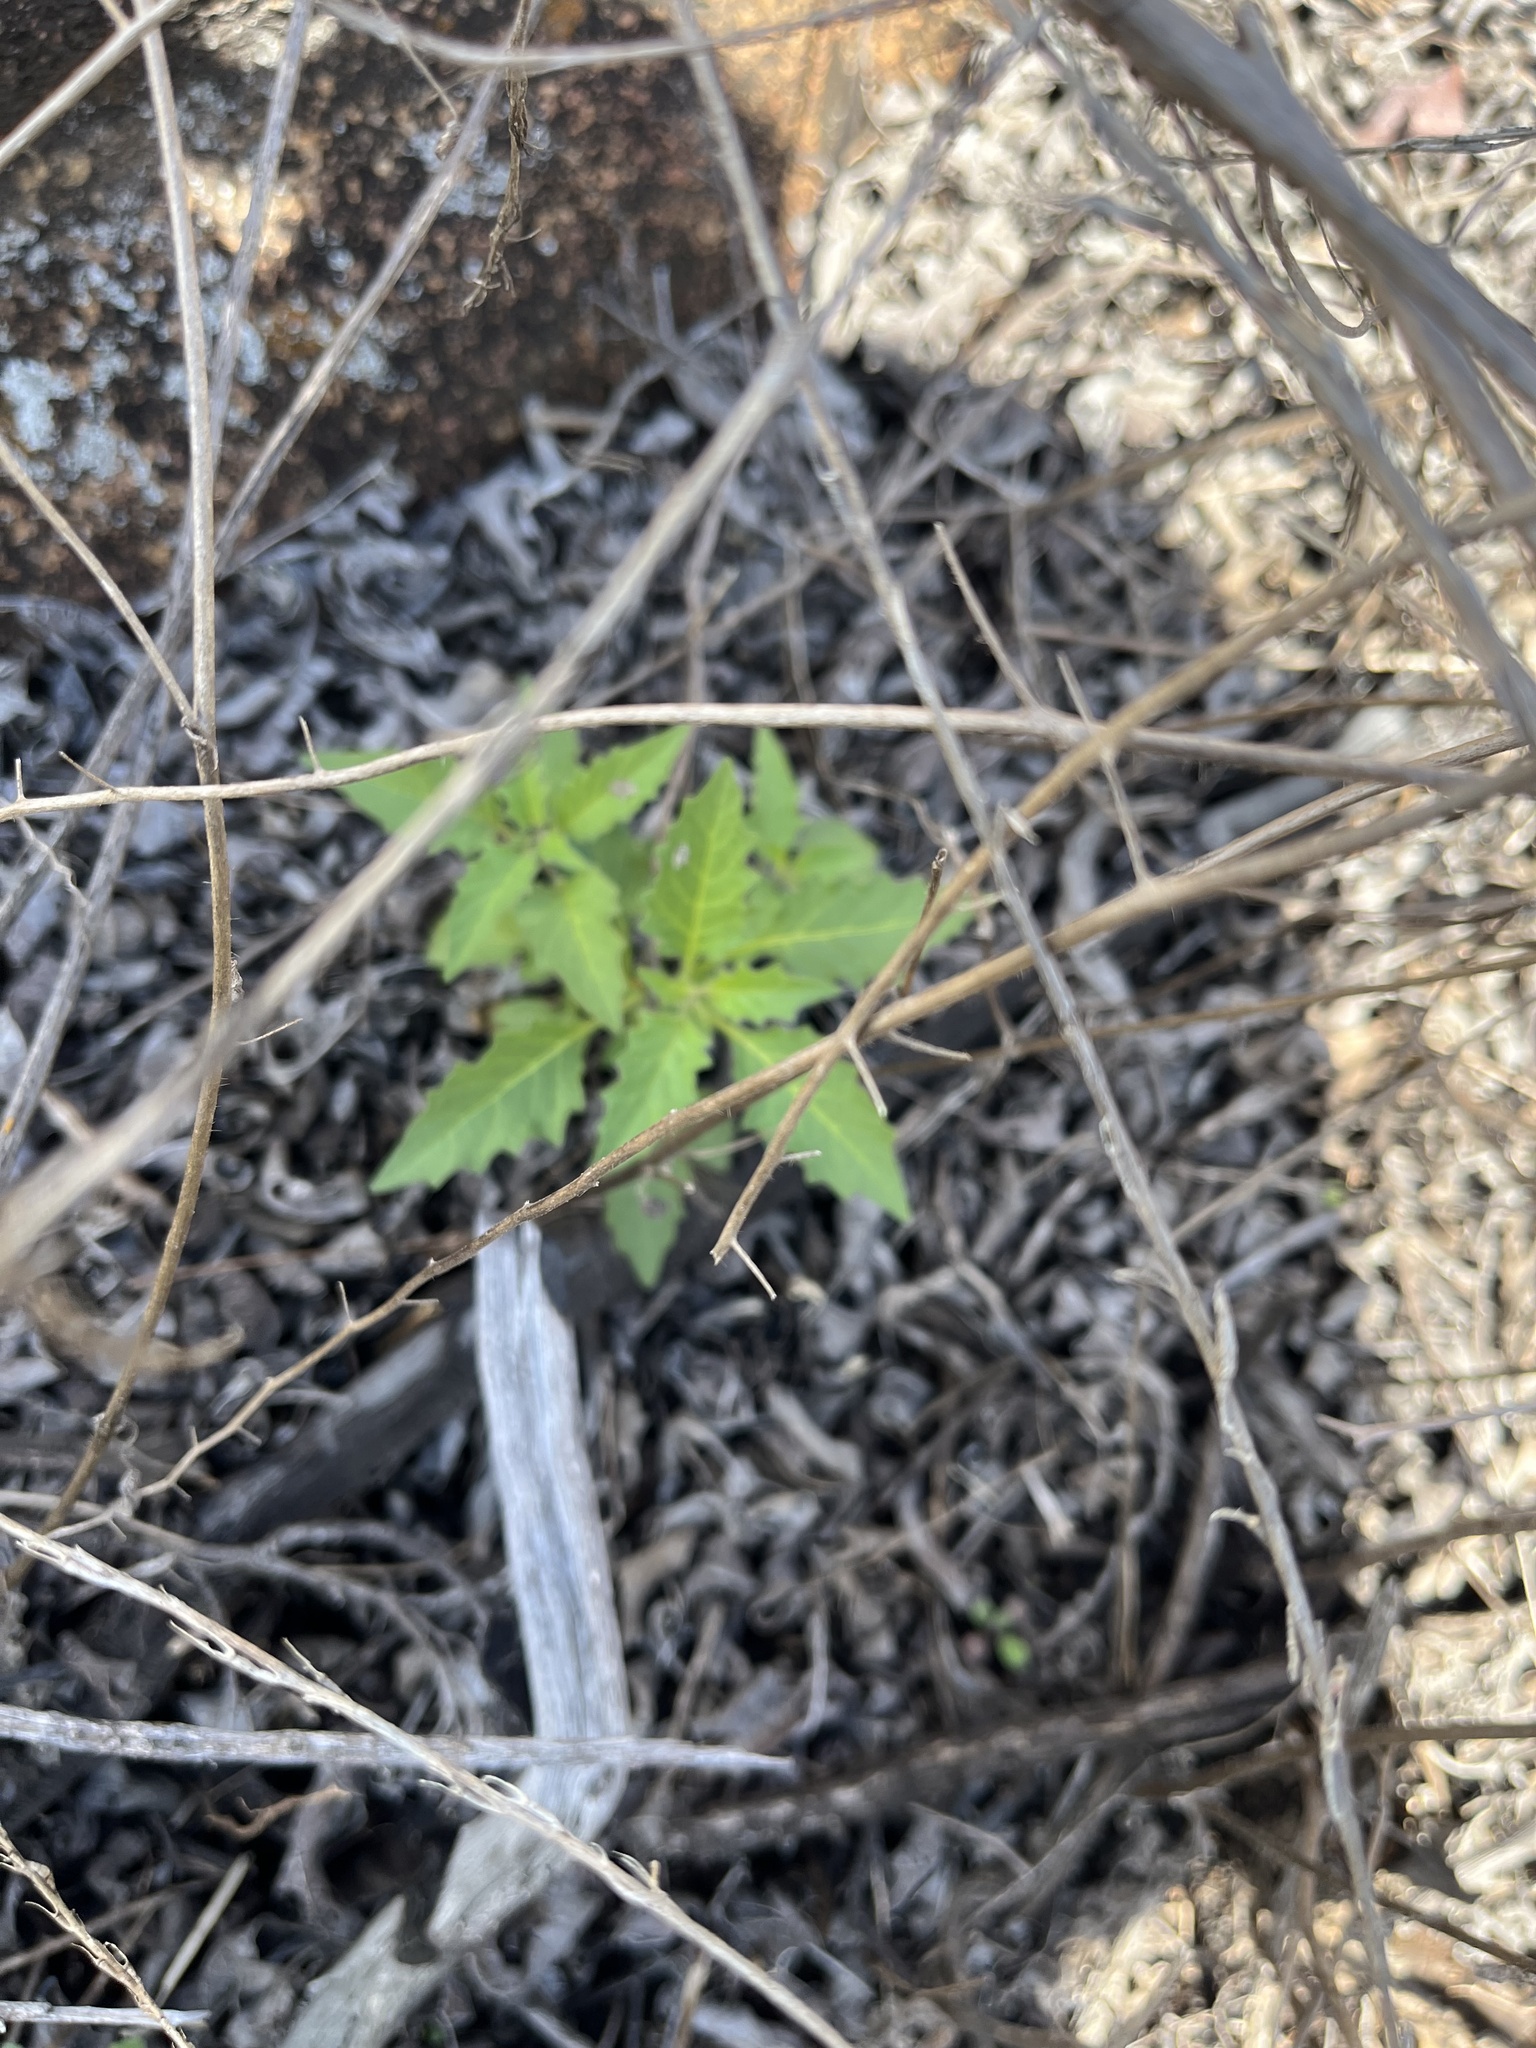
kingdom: Plantae
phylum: Tracheophyta
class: Magnoliopsida
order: Solanales
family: Solanaceae
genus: Solanum
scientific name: Solanum
